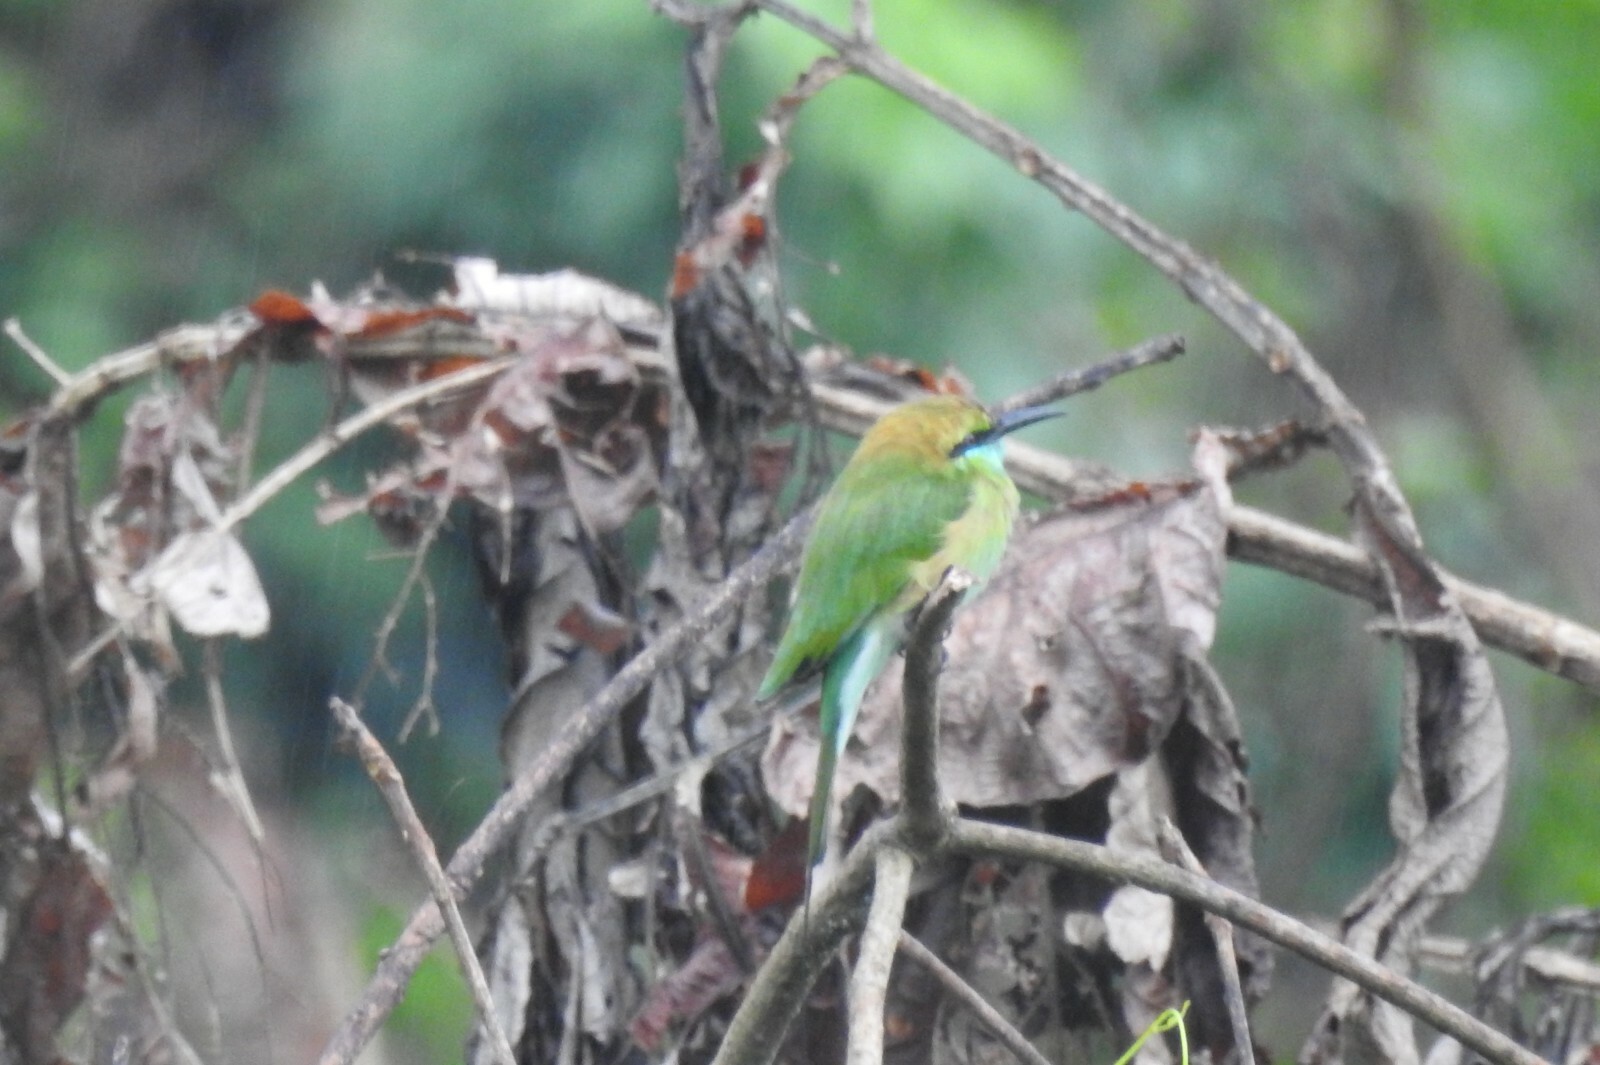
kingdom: Animalia
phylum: Chordata
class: Aves
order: Coraciiformes
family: Meropidae
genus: Merops
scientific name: Merops orientalis
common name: Green bee-eater
